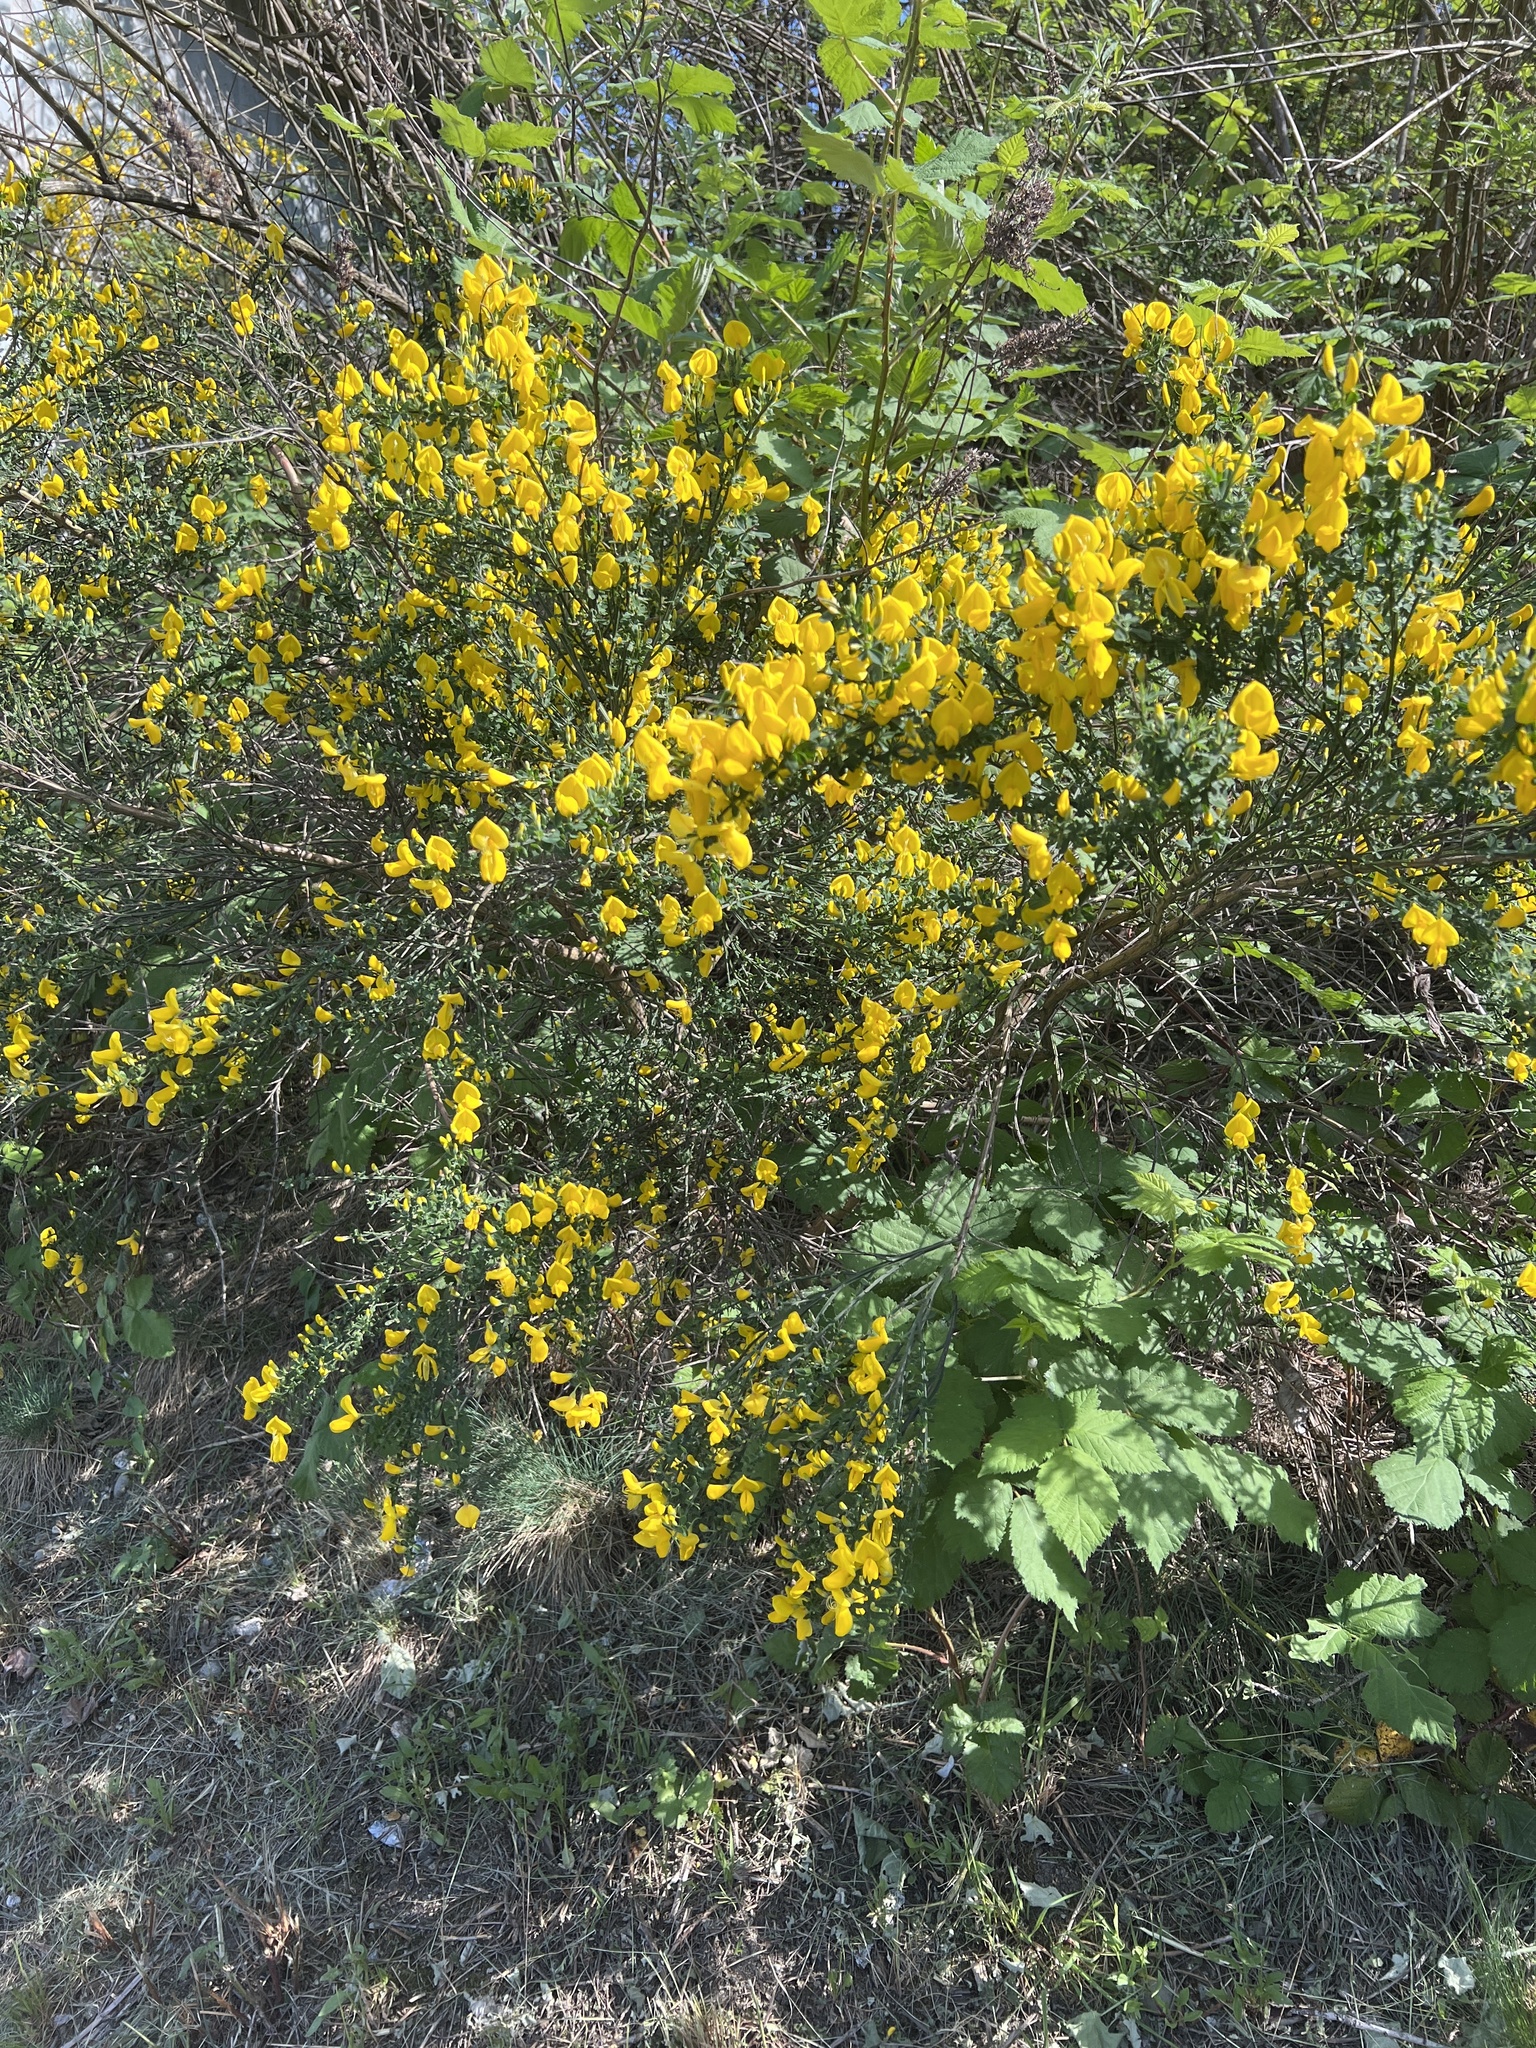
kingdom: Plantae
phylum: Tracheophyta
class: Magnoliopsida
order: Fabales
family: Fabaceae
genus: Cytisus
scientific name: Cytisus scoparius
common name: Scotch broom
